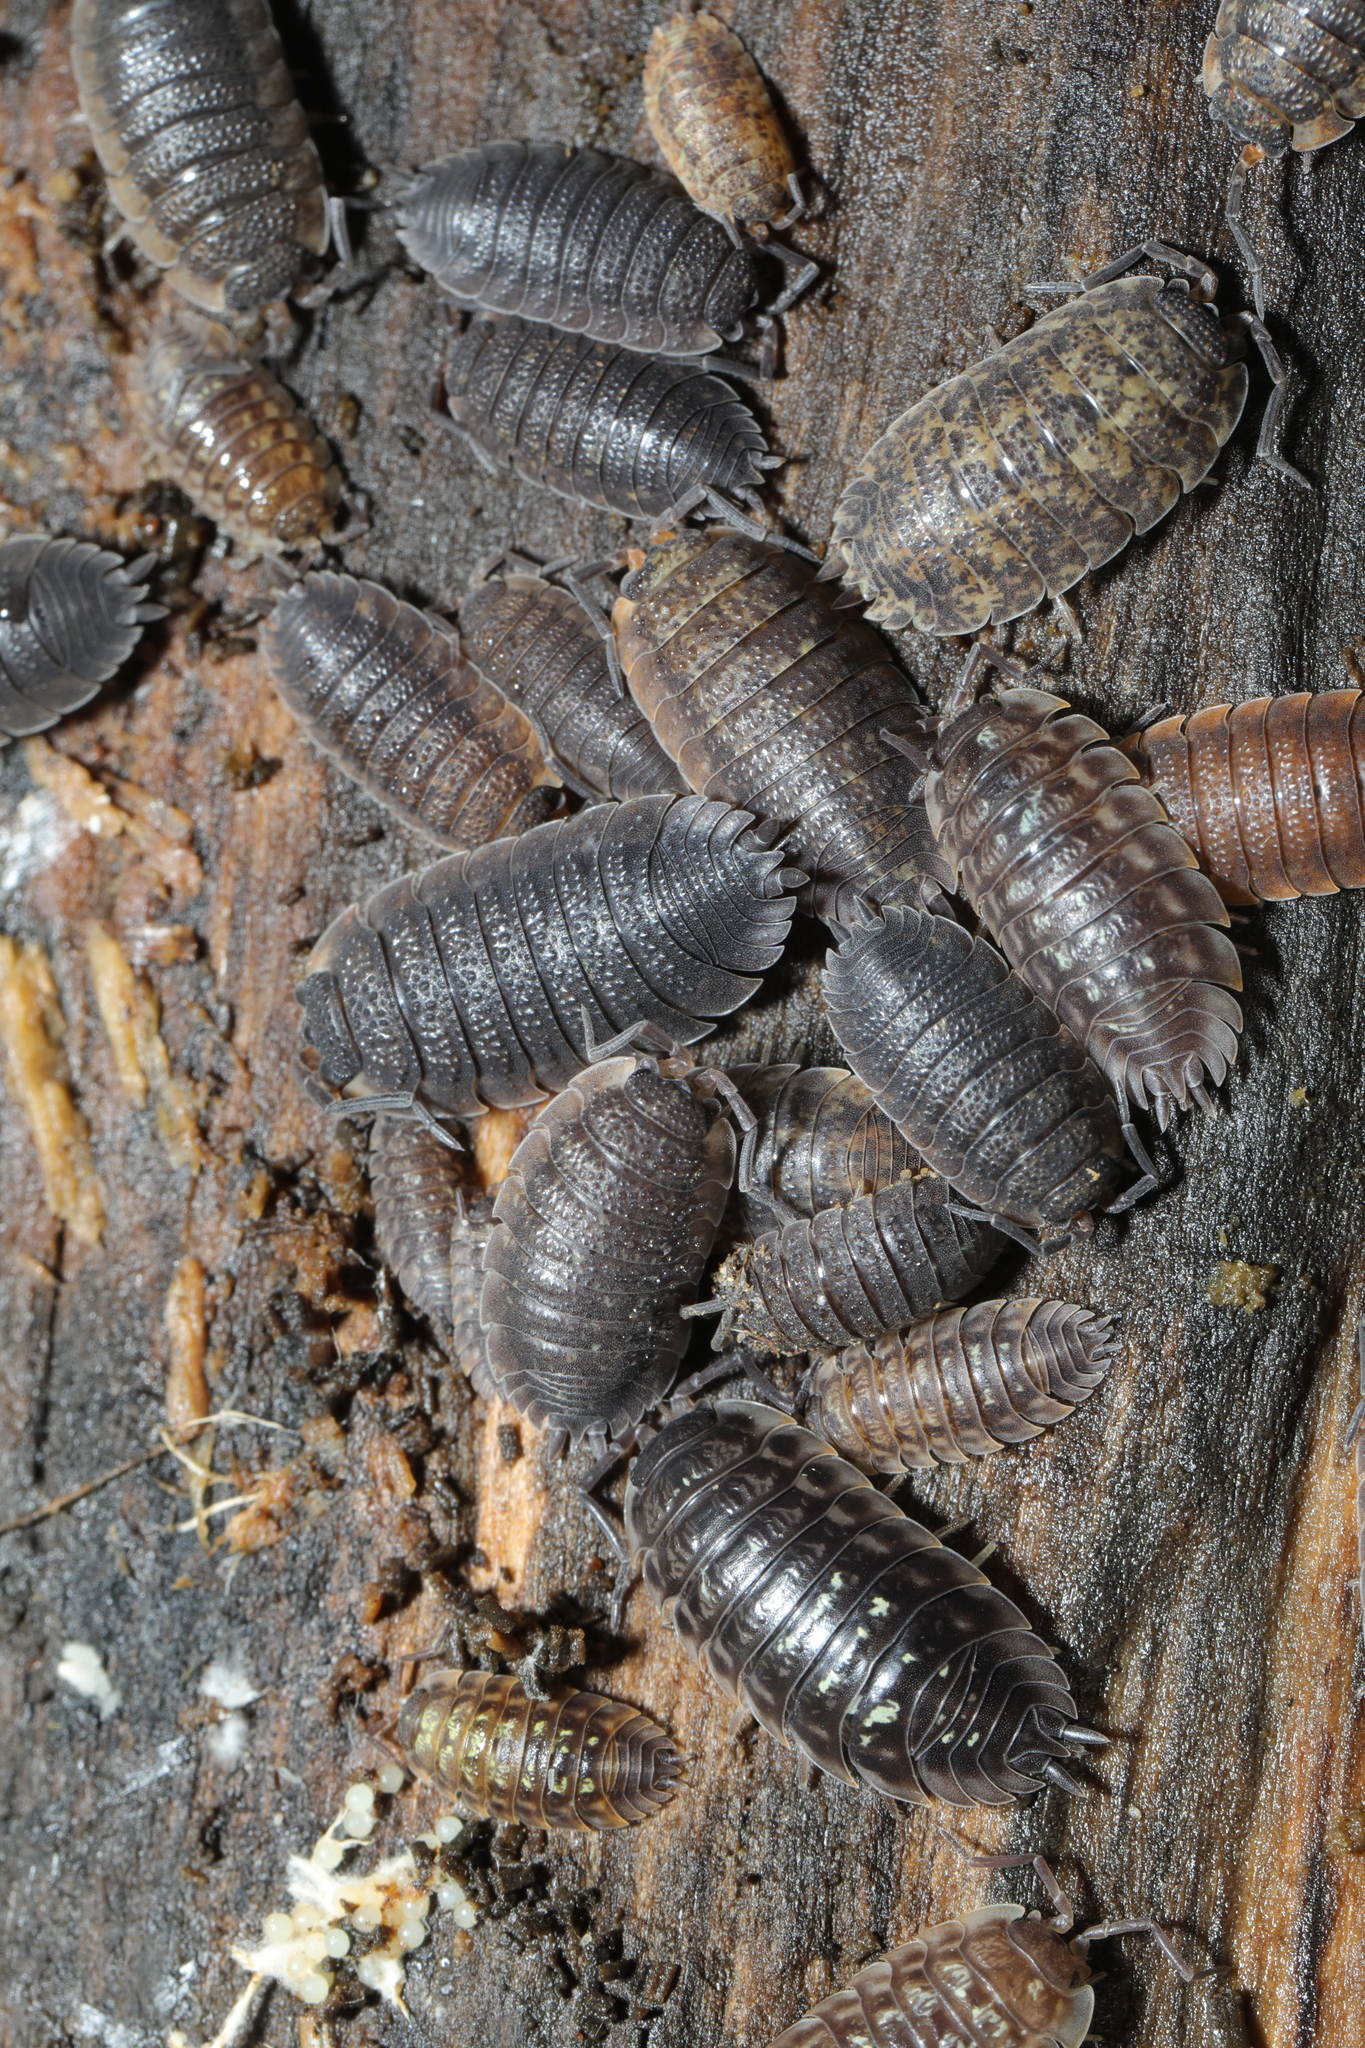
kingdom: Animalia
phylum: Arthropoda
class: Malacostraca
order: Isopoda
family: Porcellionidae
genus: Porcellio
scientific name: Porcellio scaber
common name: Common rough woodlouse
